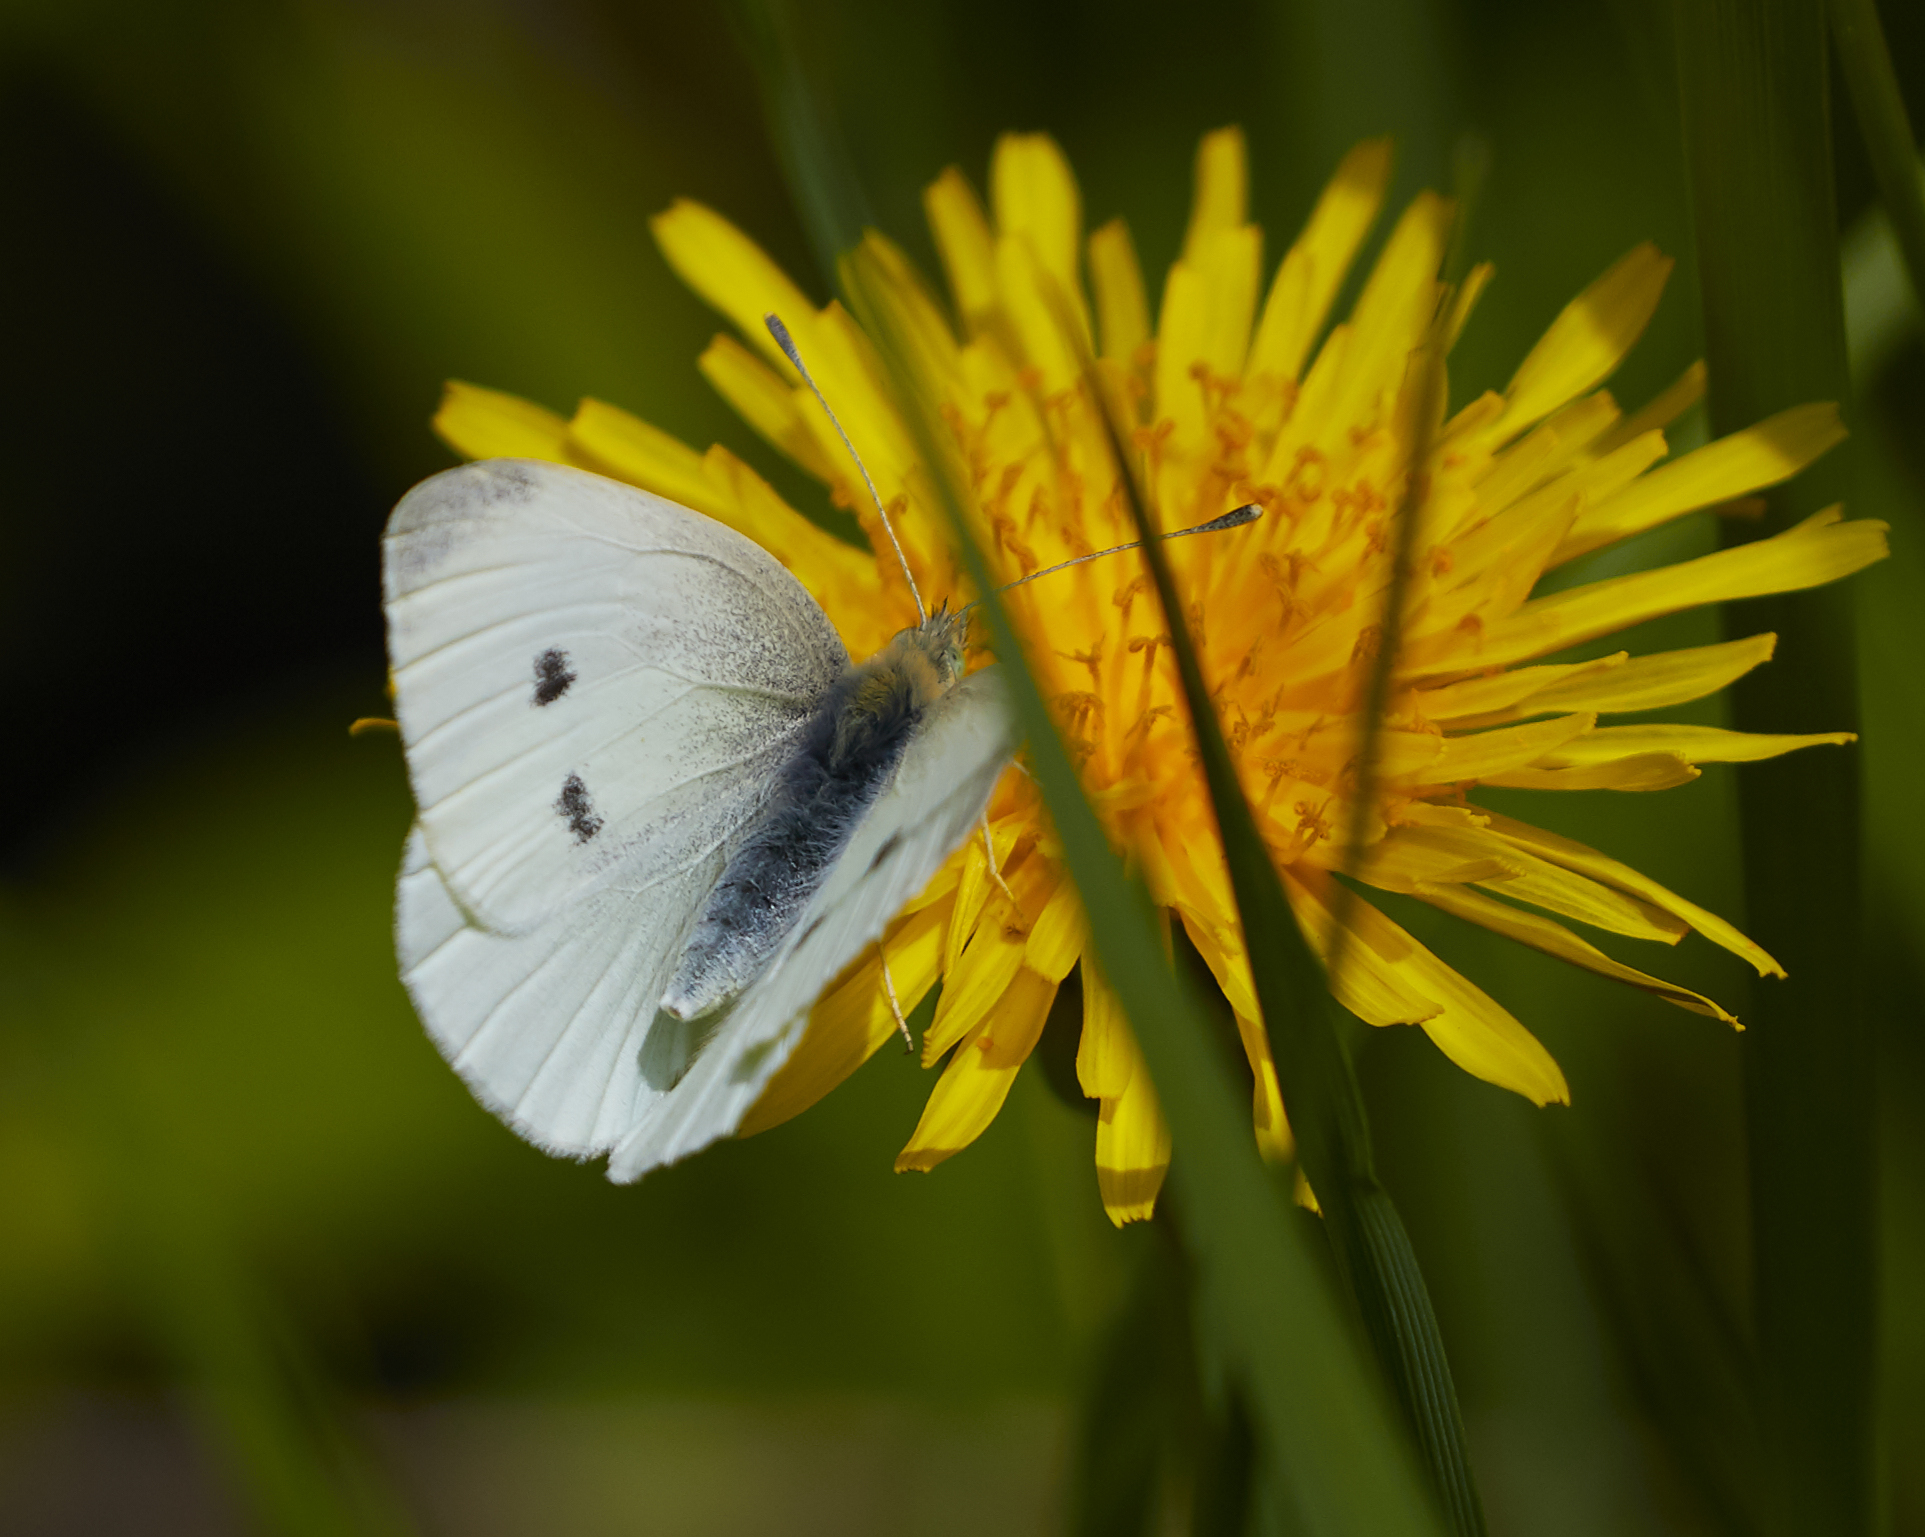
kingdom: Animalia
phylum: Arthropoda
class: Insecta
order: Lepidoptera
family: Pieridae
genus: Pieris
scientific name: Pieris rapae
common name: Small white
